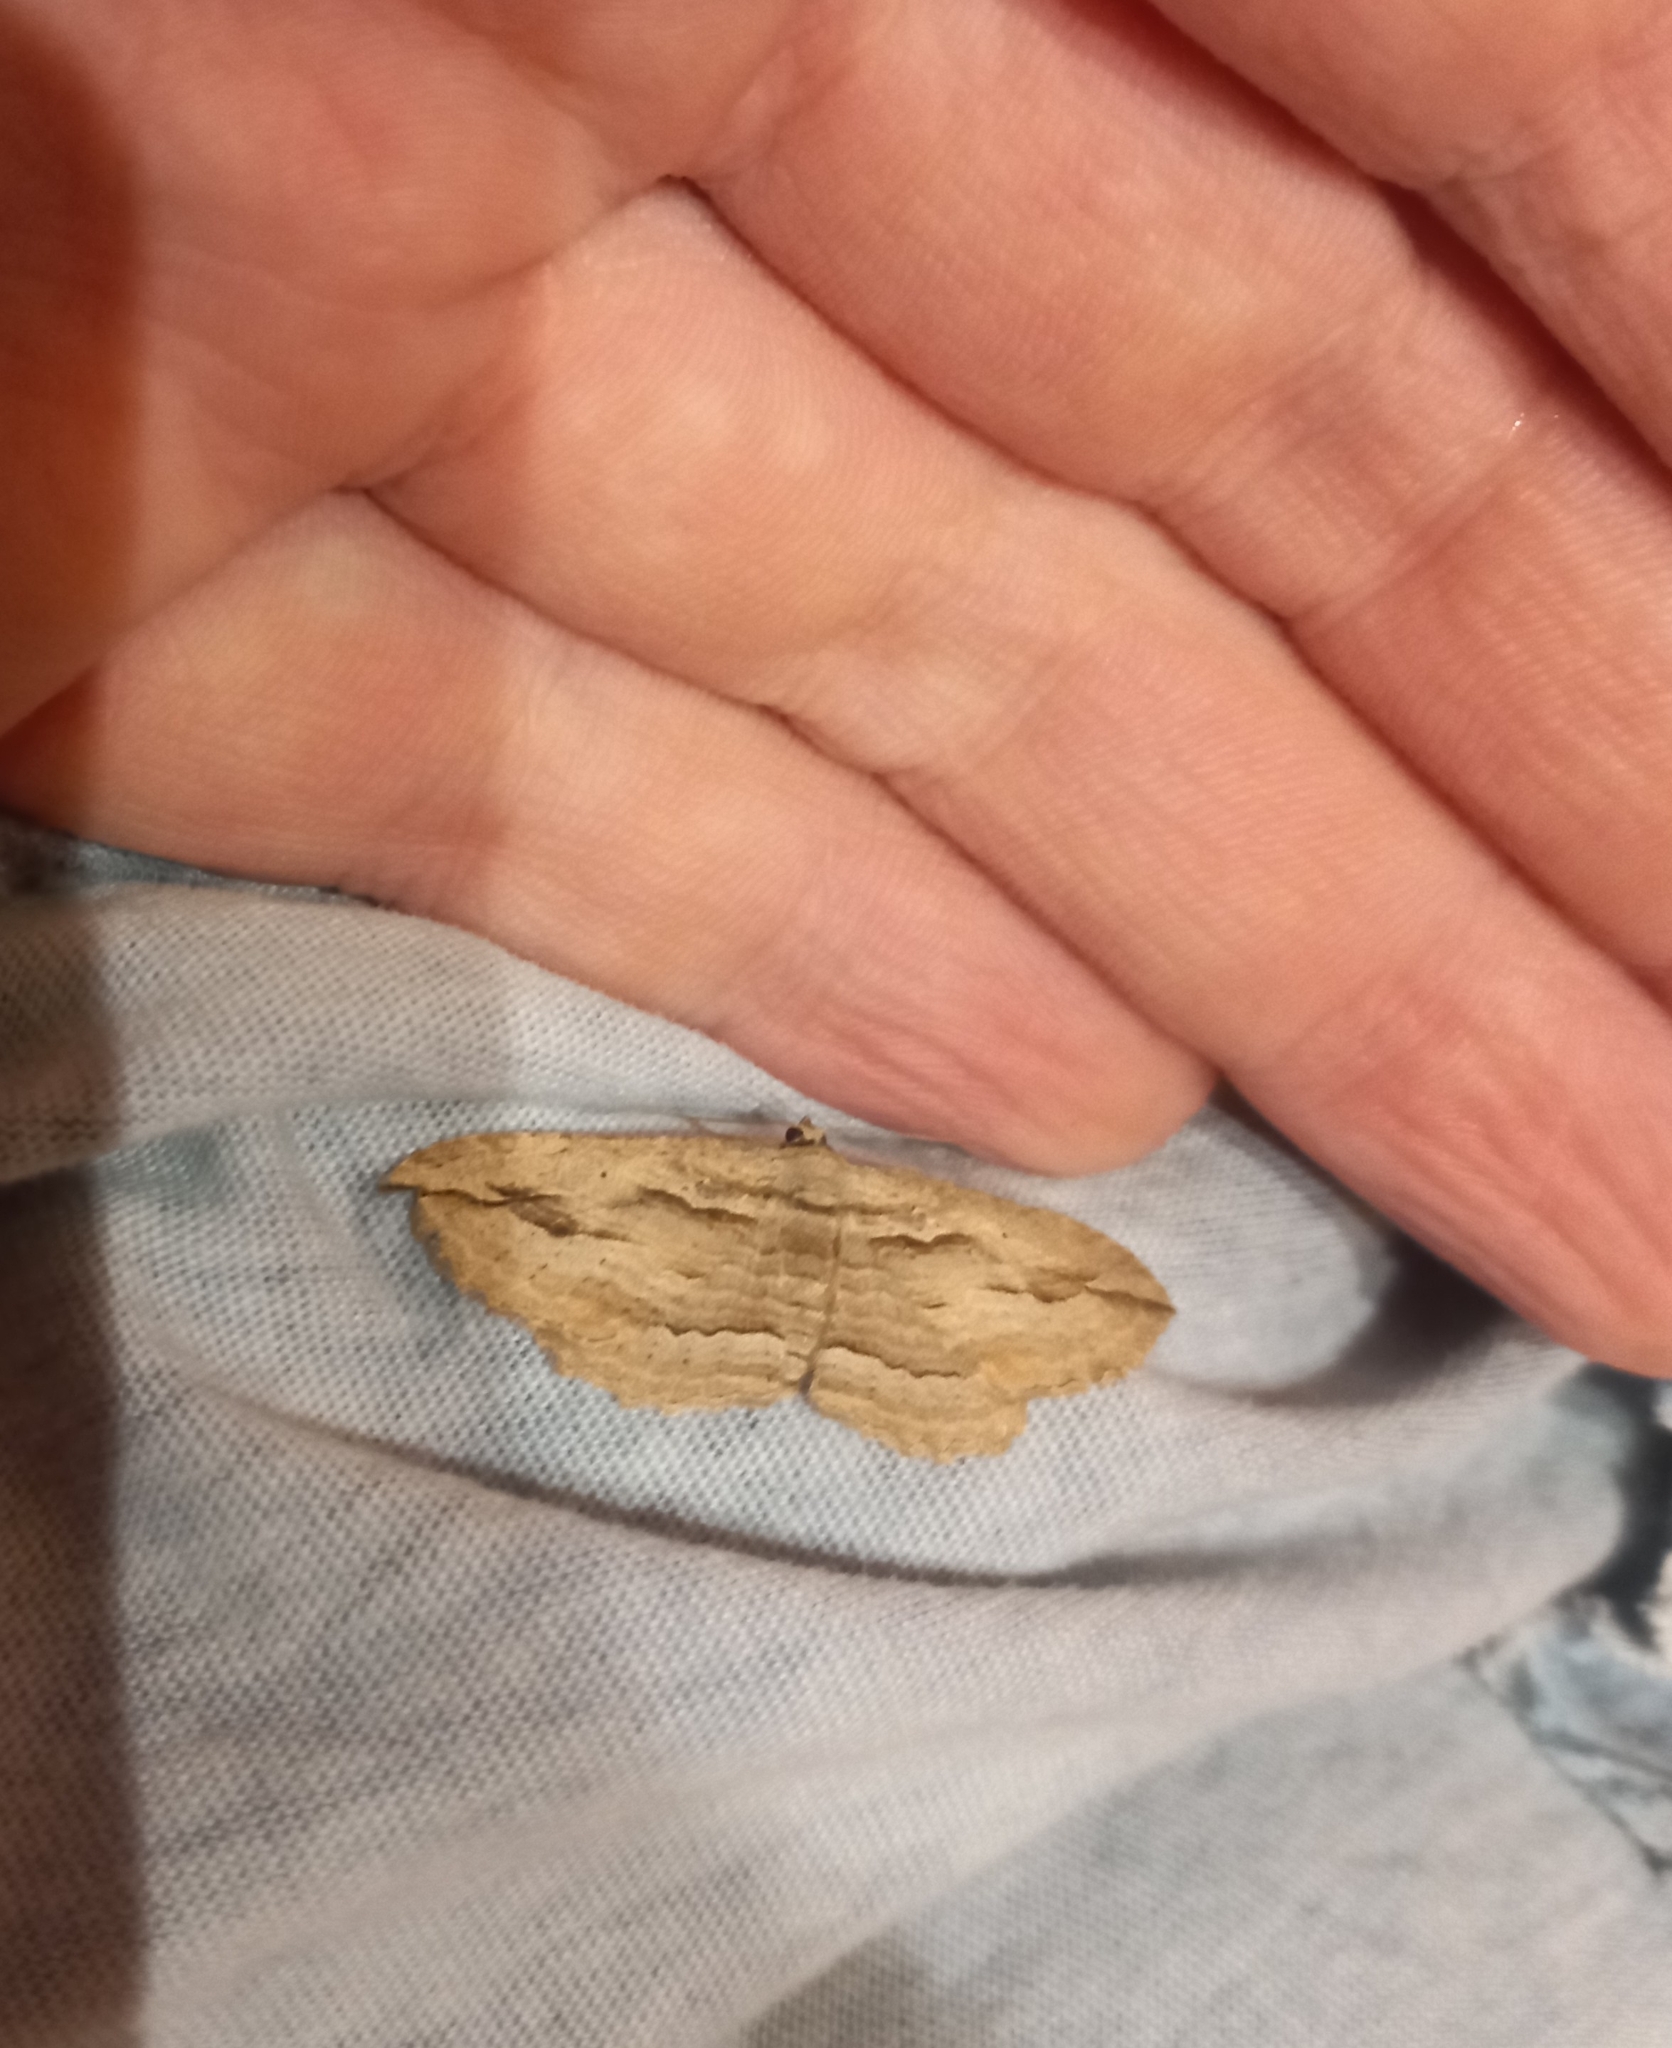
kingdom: Animalia
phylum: Arthropoda
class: Insecta
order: Lepidoptera
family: Geometridae
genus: Austrocidaria
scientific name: Austrocidaria gobiata
